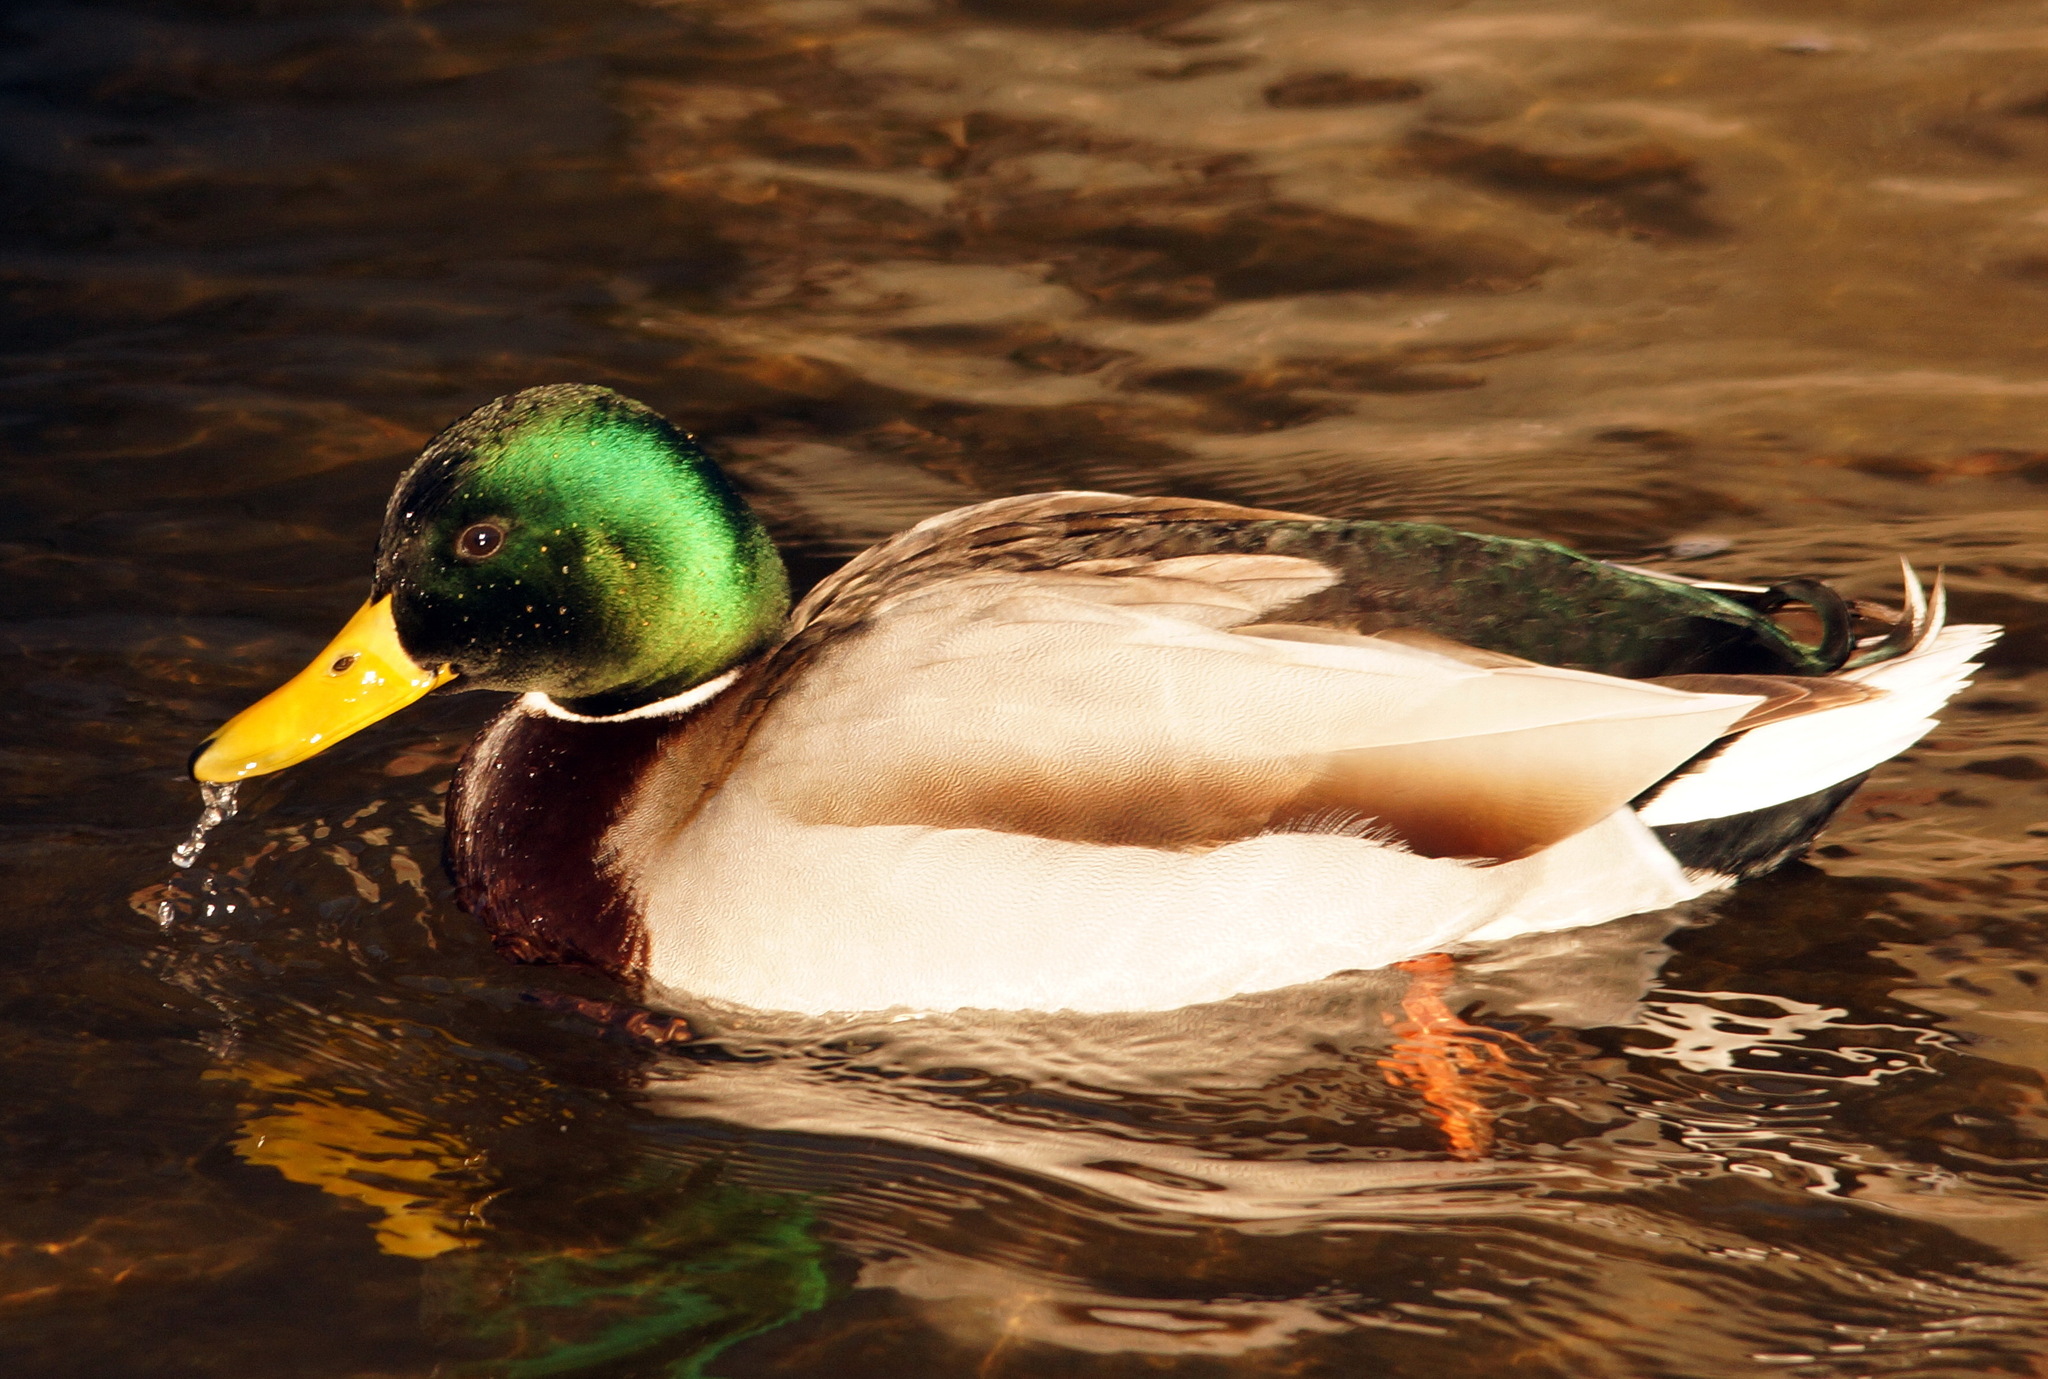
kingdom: Animalia
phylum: Chordata
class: Aves
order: Anseriformes
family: Anatidae
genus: Anas
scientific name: Anas platyrhynchos
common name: Mallard
